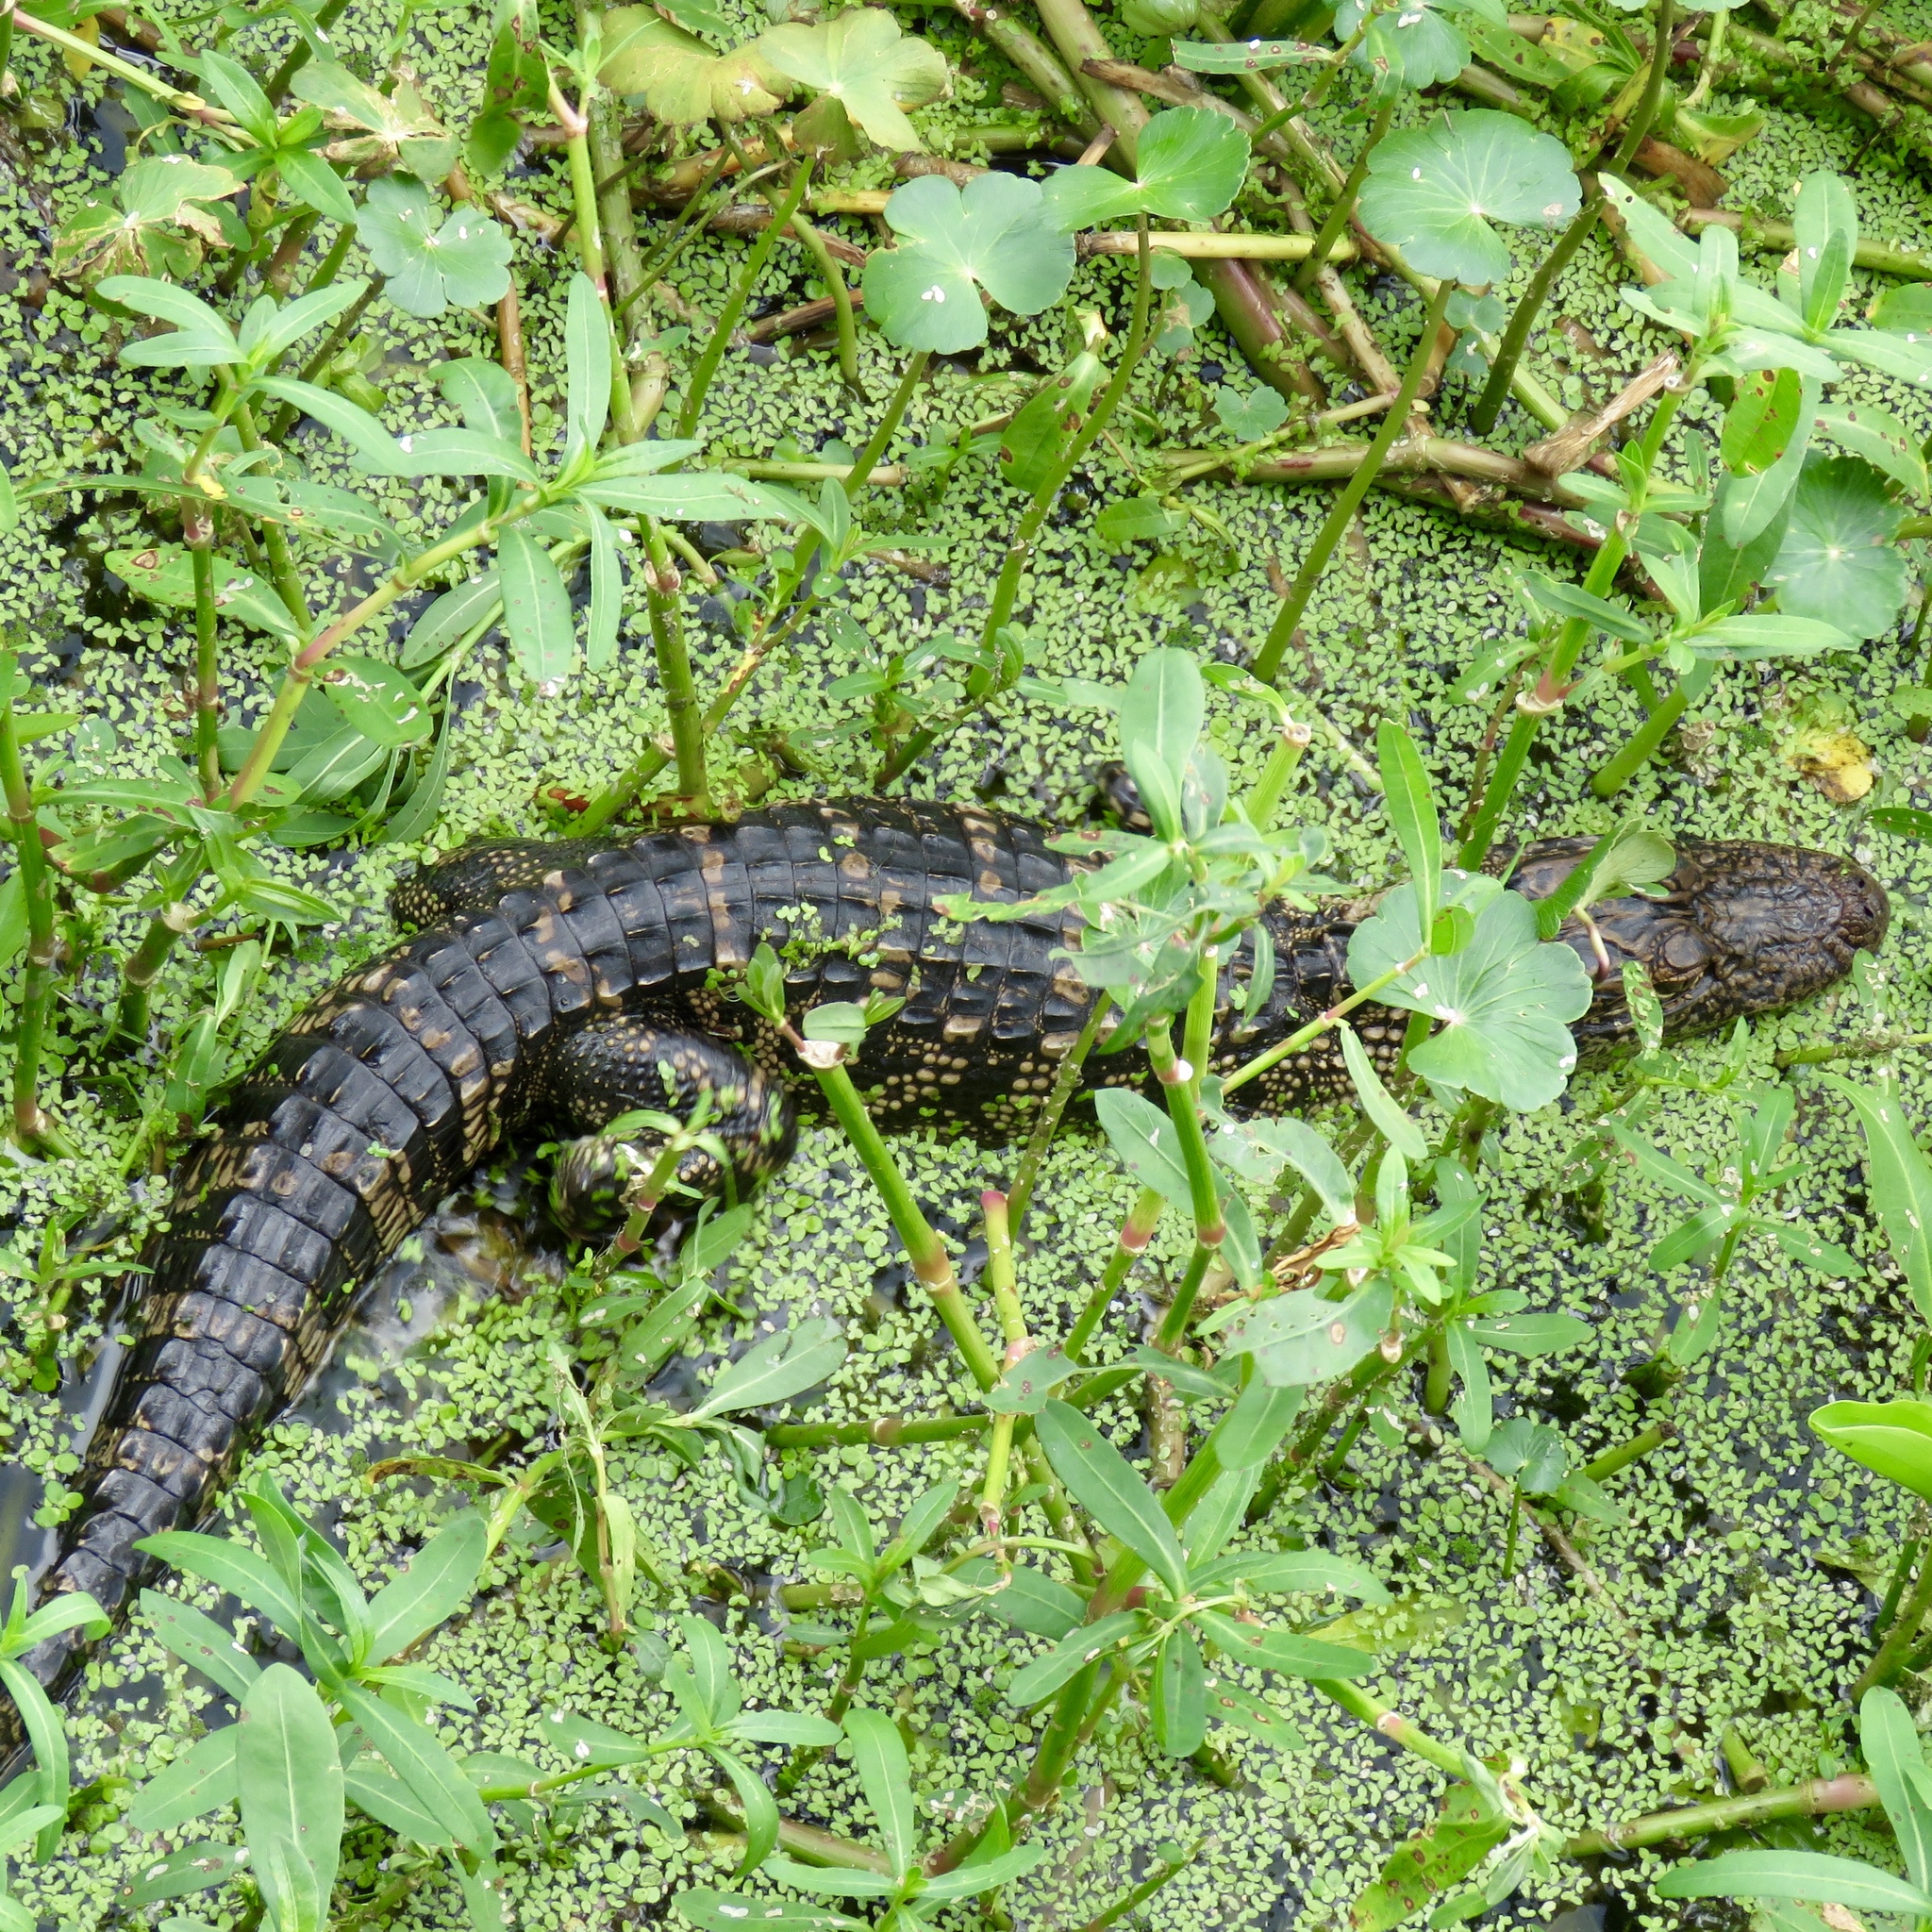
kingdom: Animalia
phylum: Chordata
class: Crocodylia
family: Alligatoridae
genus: Alligator
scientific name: Alligator mississippiensis
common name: American alligator
